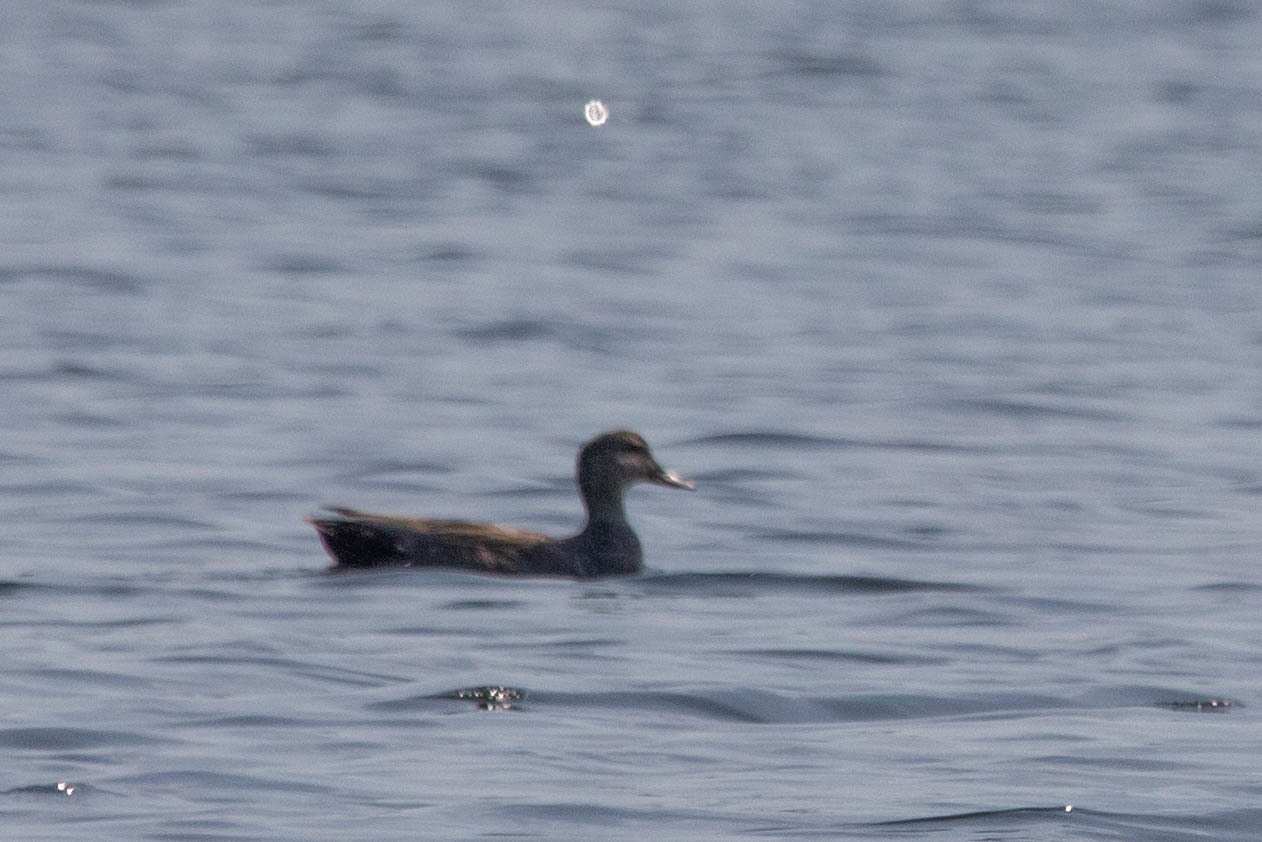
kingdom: Animalia
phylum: Chordata
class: Aves
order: Anseriformes
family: Anatidae
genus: Mareca
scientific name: Mareca strepera
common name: Gadwall
